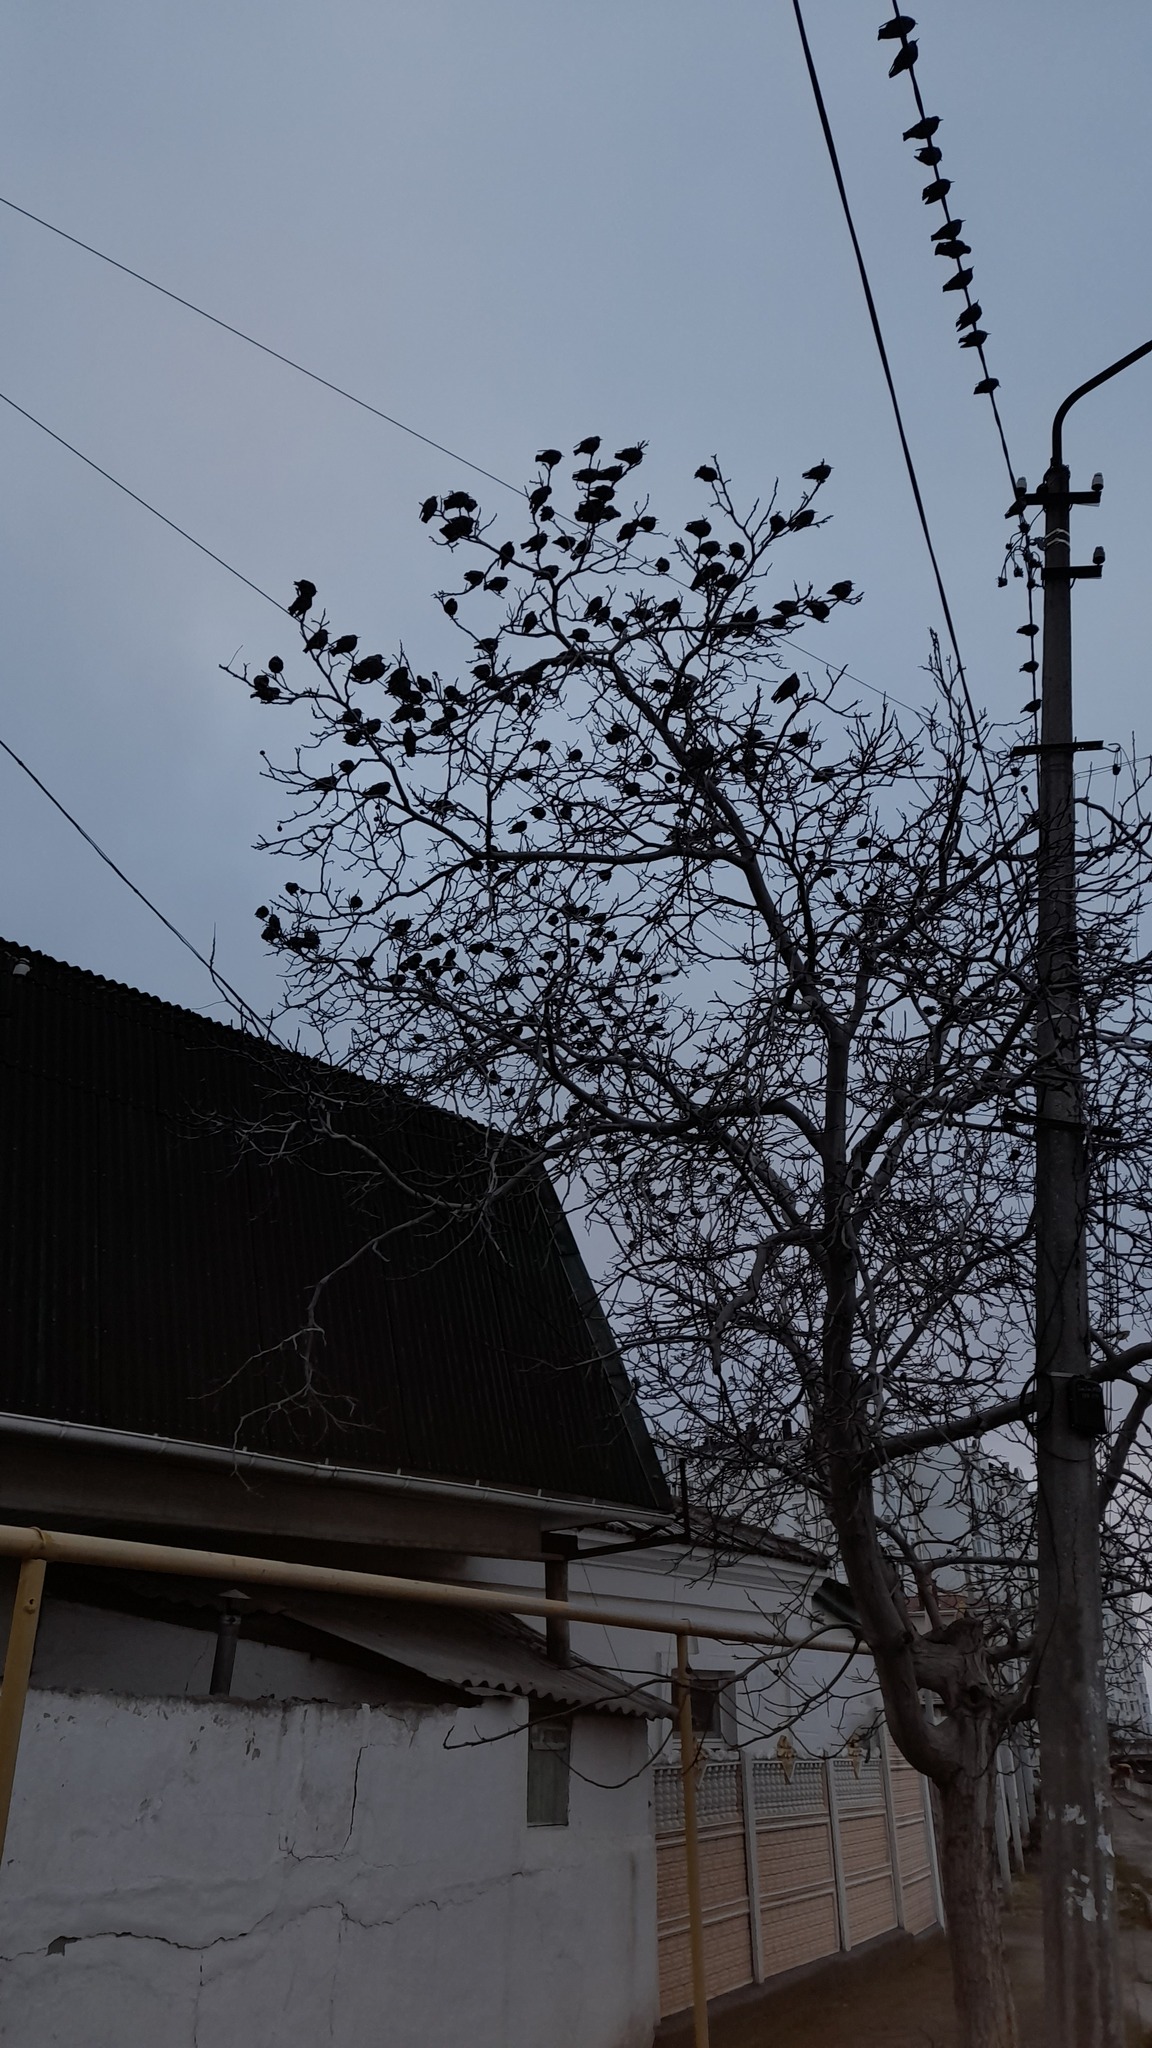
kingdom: Animalia
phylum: Chordata
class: Aves
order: Passeriformes
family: Sturnidae
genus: Sturnus
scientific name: Sturnus vulgaris
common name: Common starling
